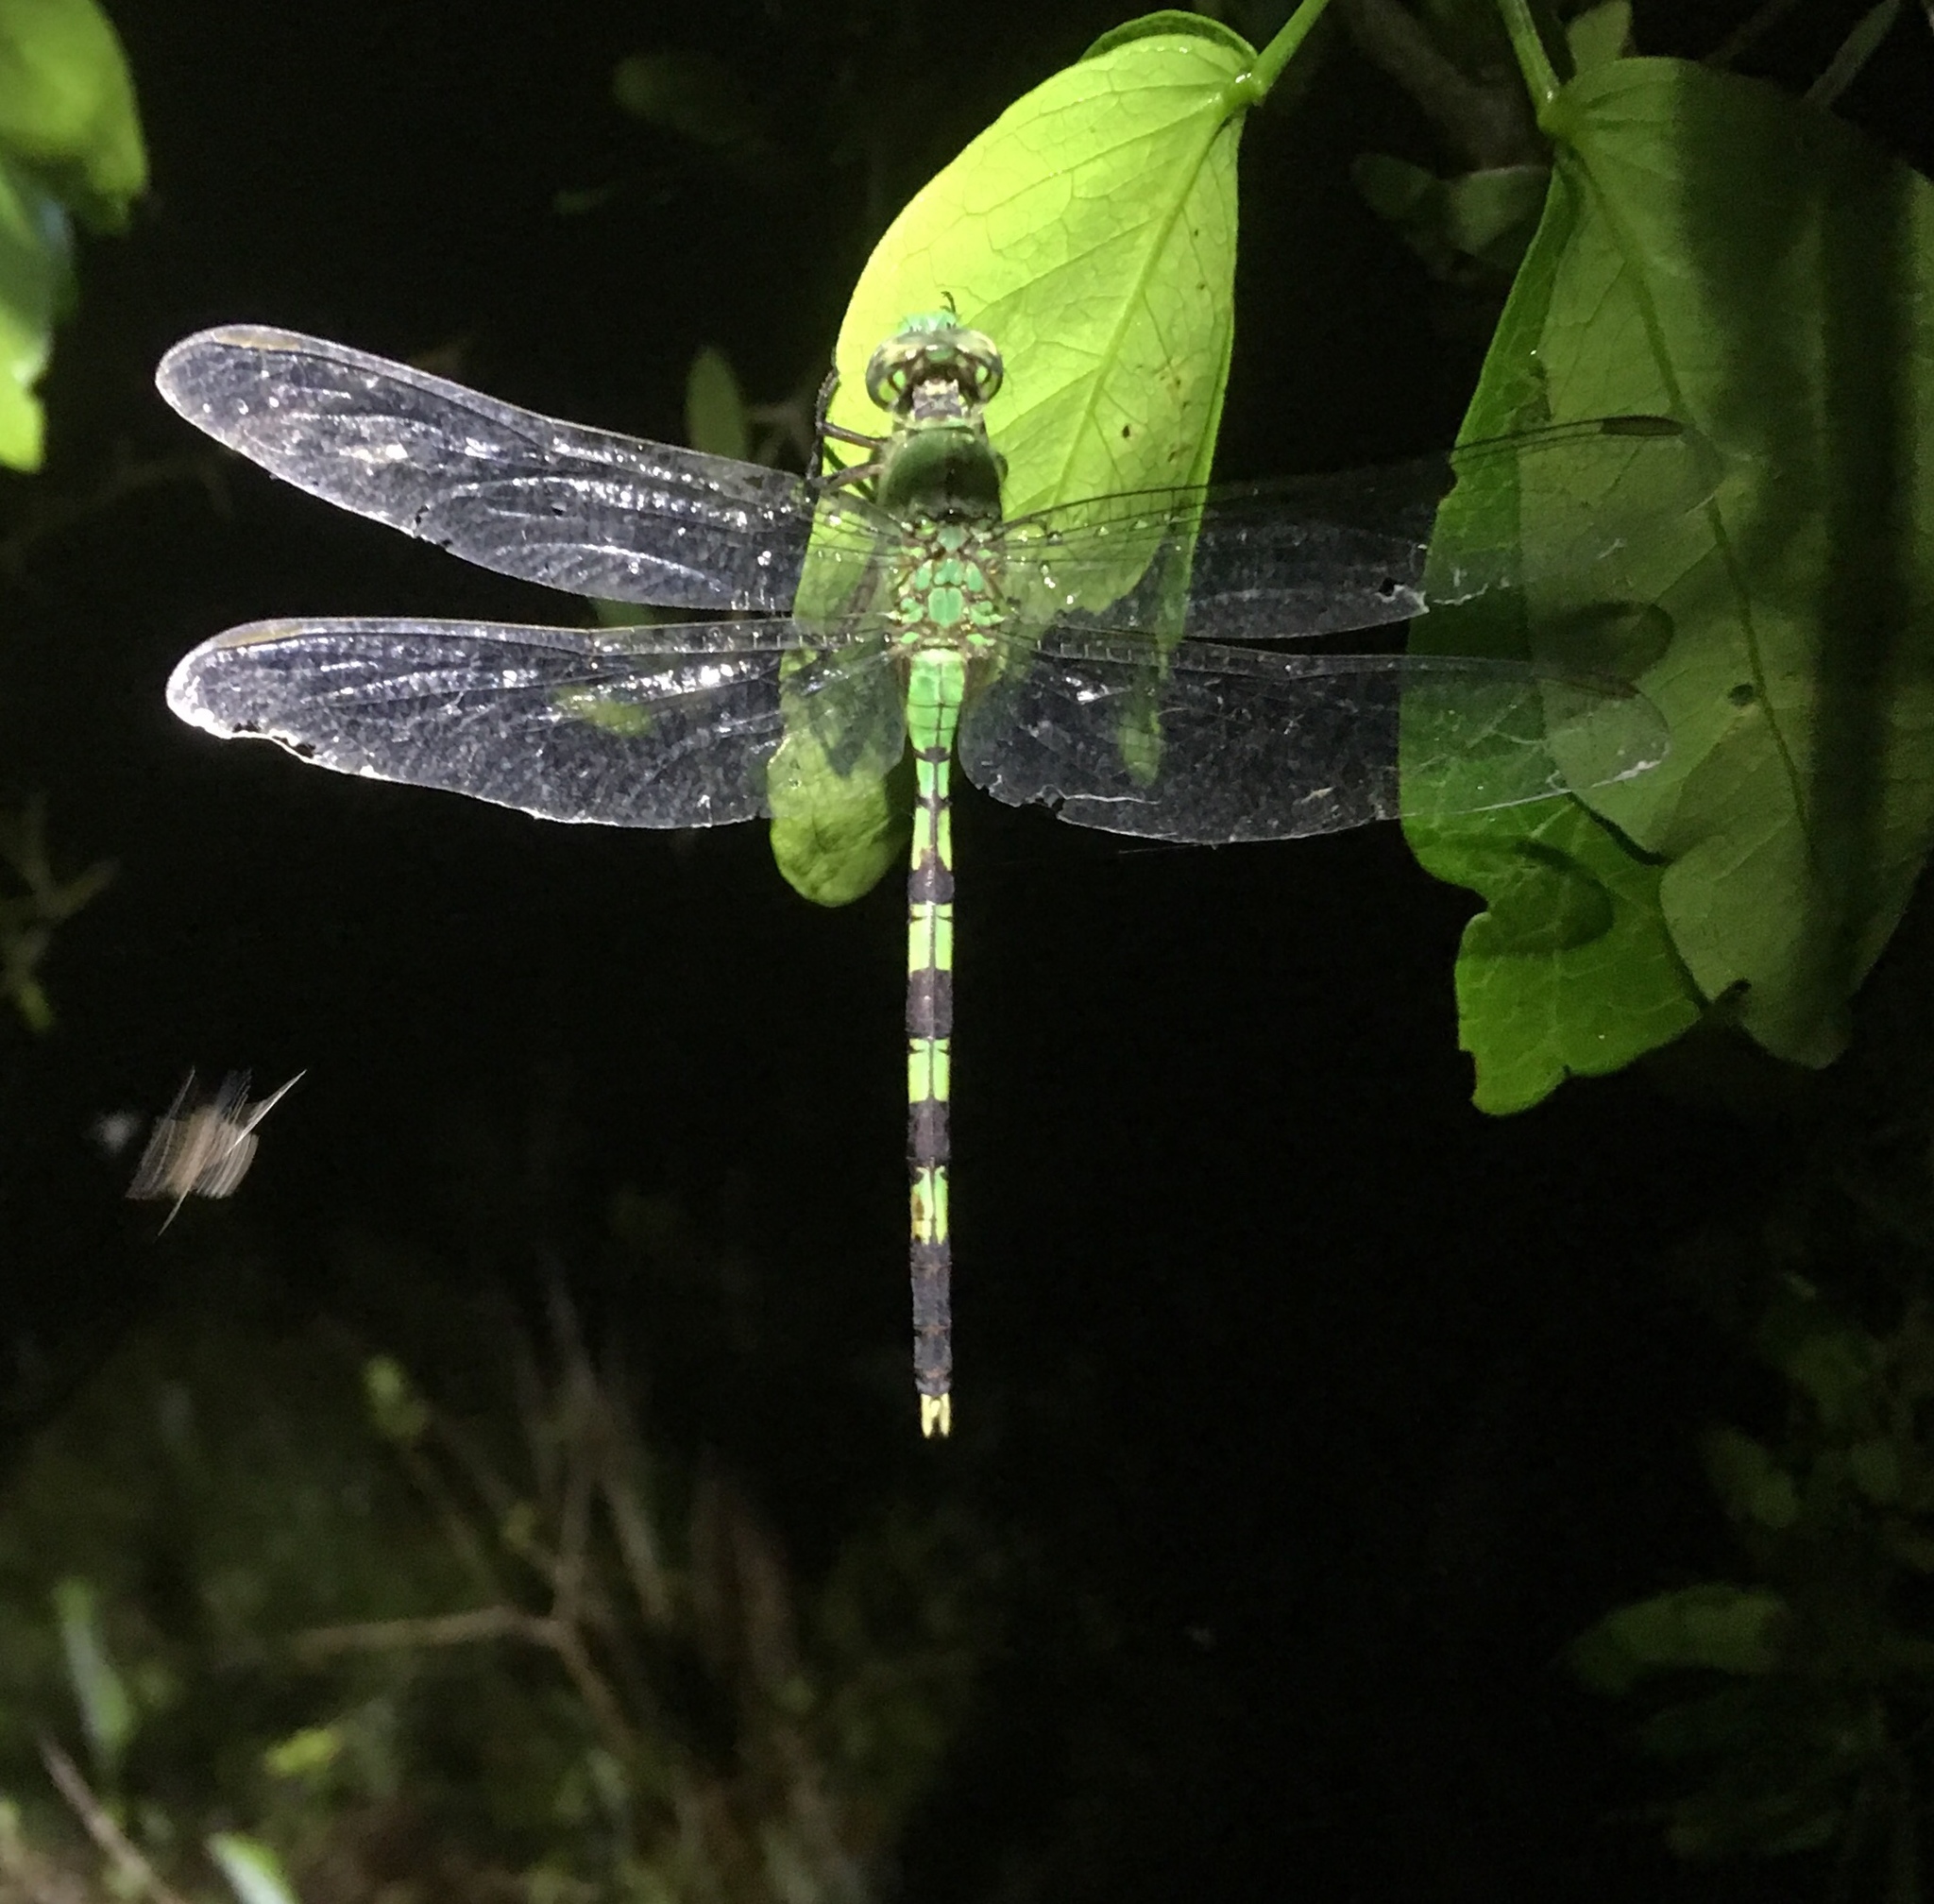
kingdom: Animalia
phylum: Arthropoda
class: Insecta
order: Odonata
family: Libellulidae
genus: Erythemis
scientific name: Erythemis vesiculosa
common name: Great pondhawk
